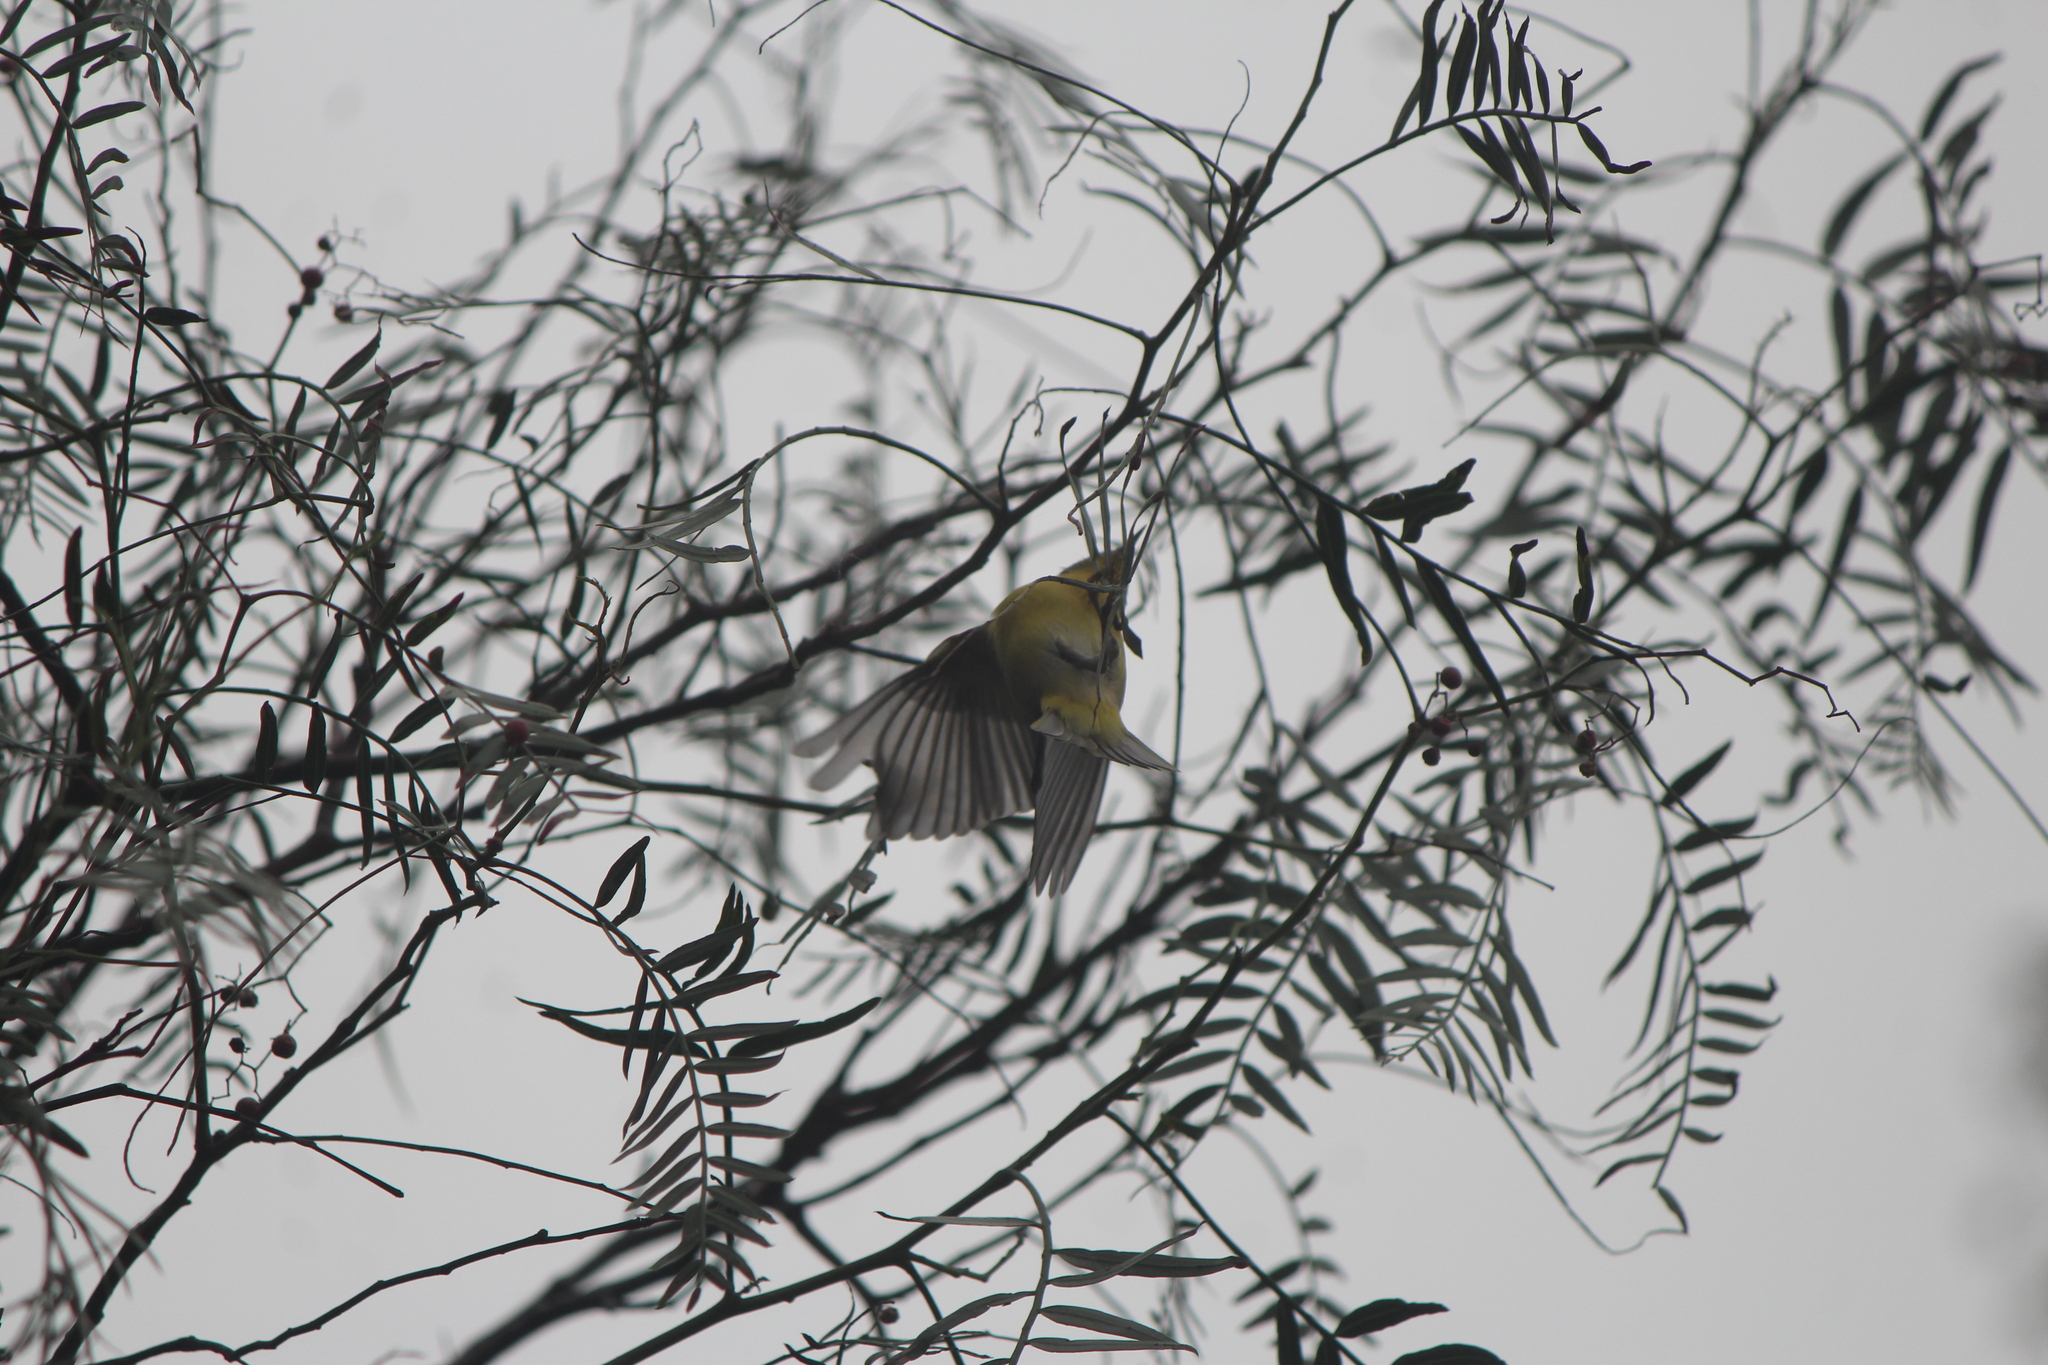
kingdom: Animalia
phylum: Chordata
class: Aves
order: Passeriformes
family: Parulidae
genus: Leiothlypis
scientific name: Leiothlypis ruficapilla
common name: Nashville warbler
